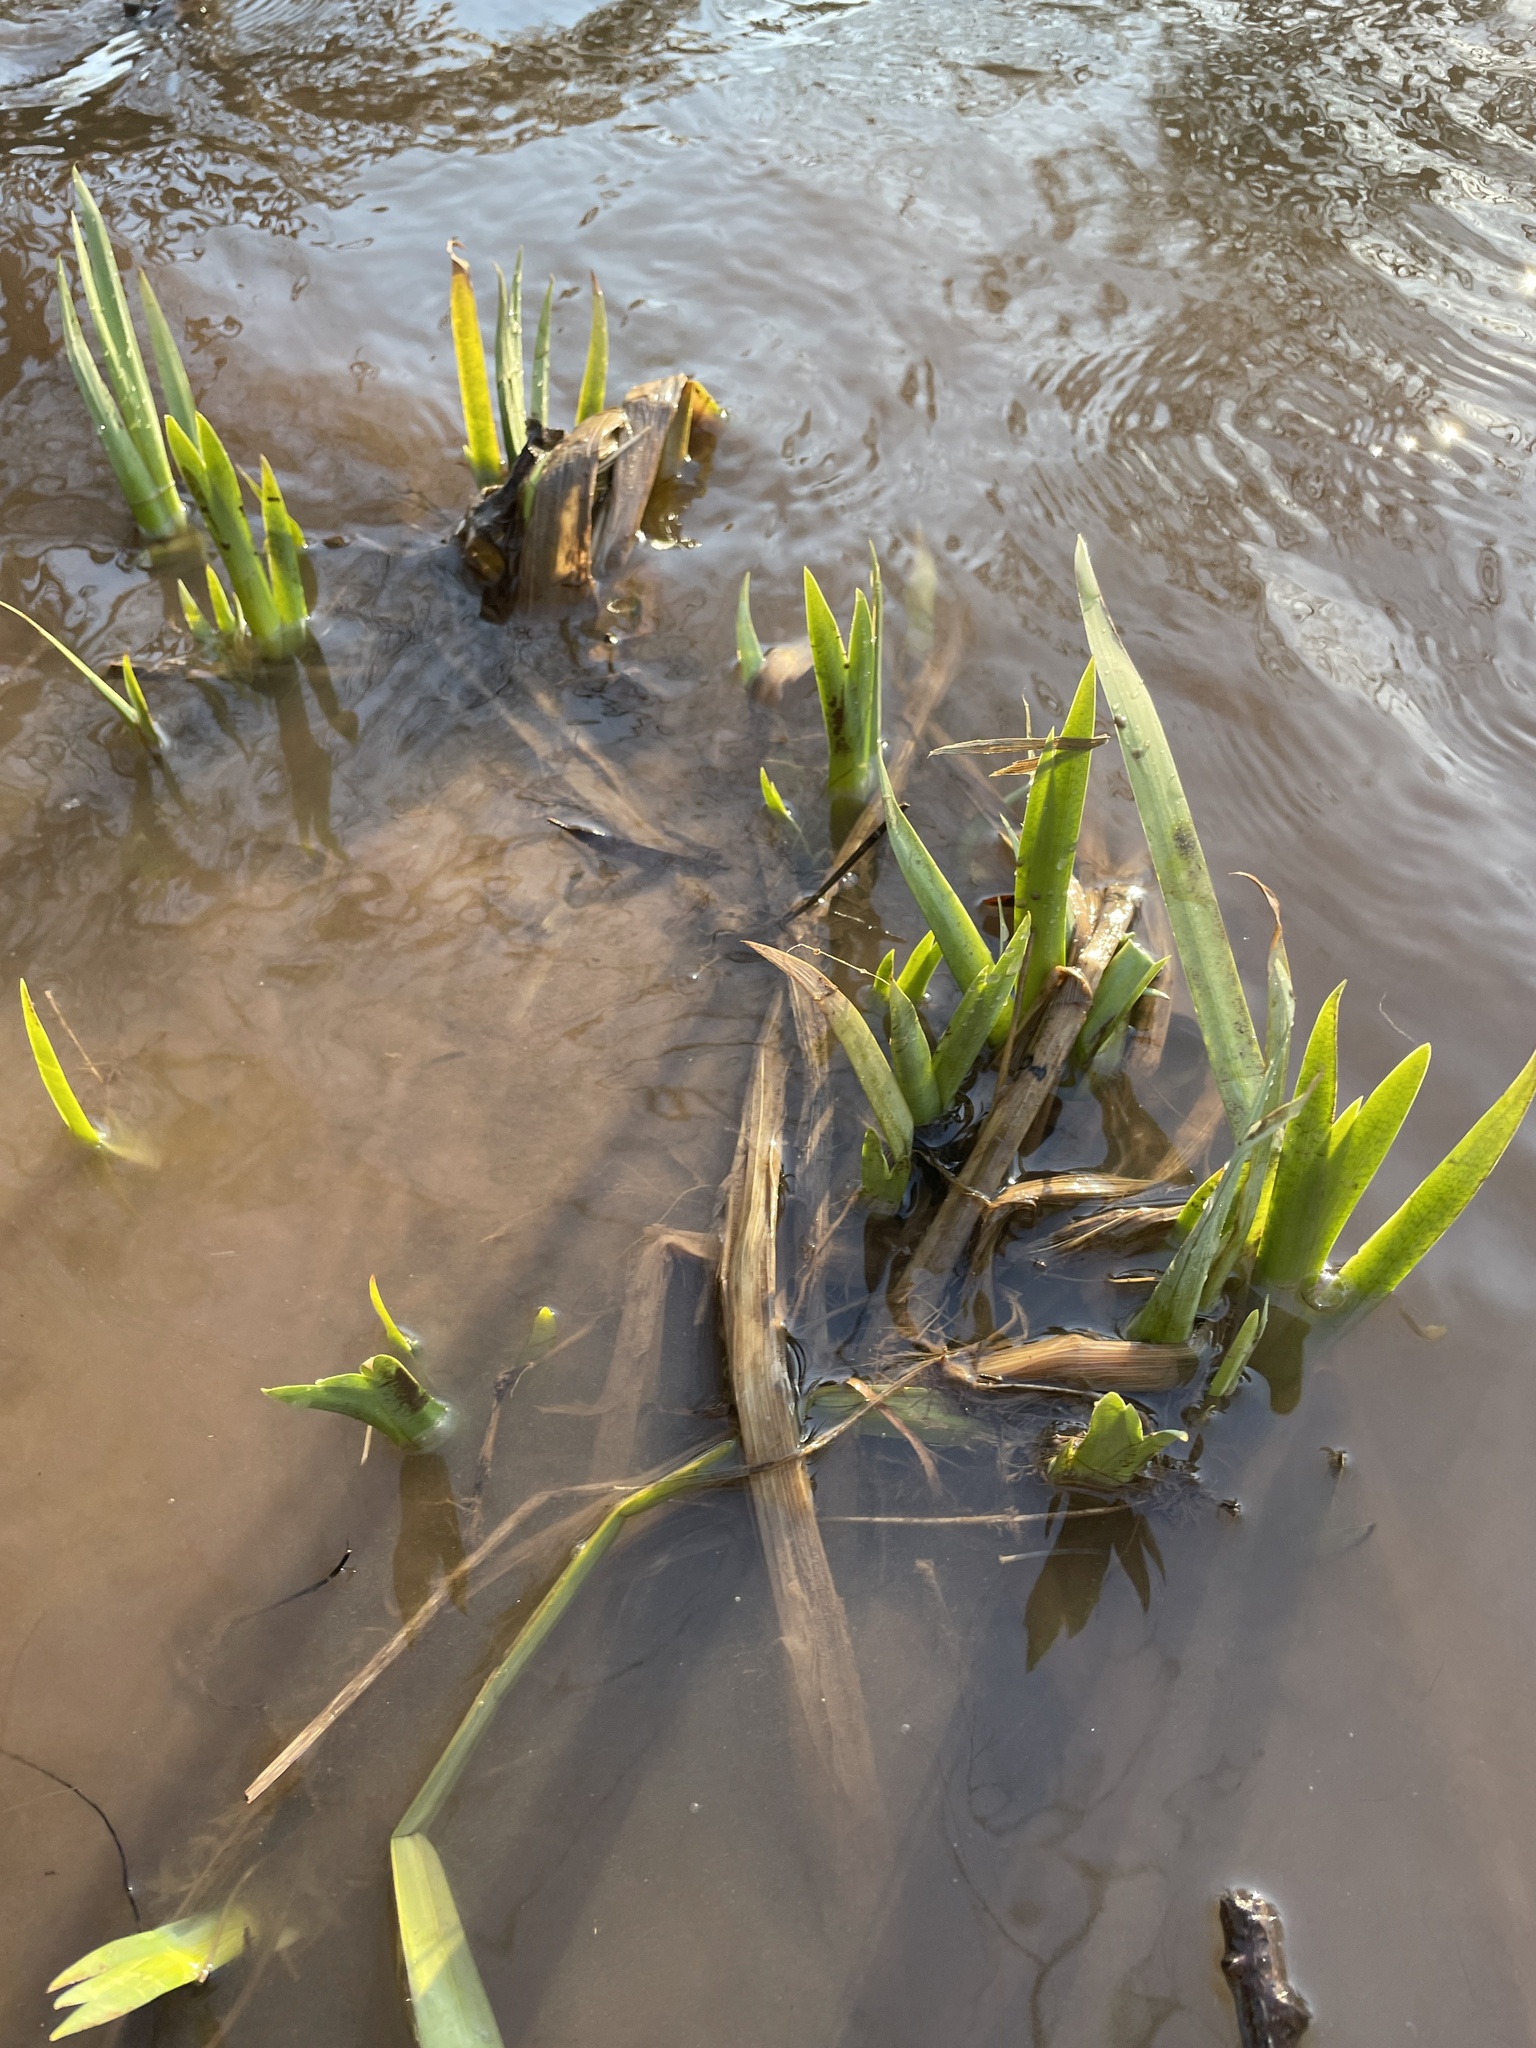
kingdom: Plantae
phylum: Tracheophyta
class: Liliopsida
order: Asparagales
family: Iridaceae
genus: Iris
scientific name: Iris pseudacorus
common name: Yellow flag
